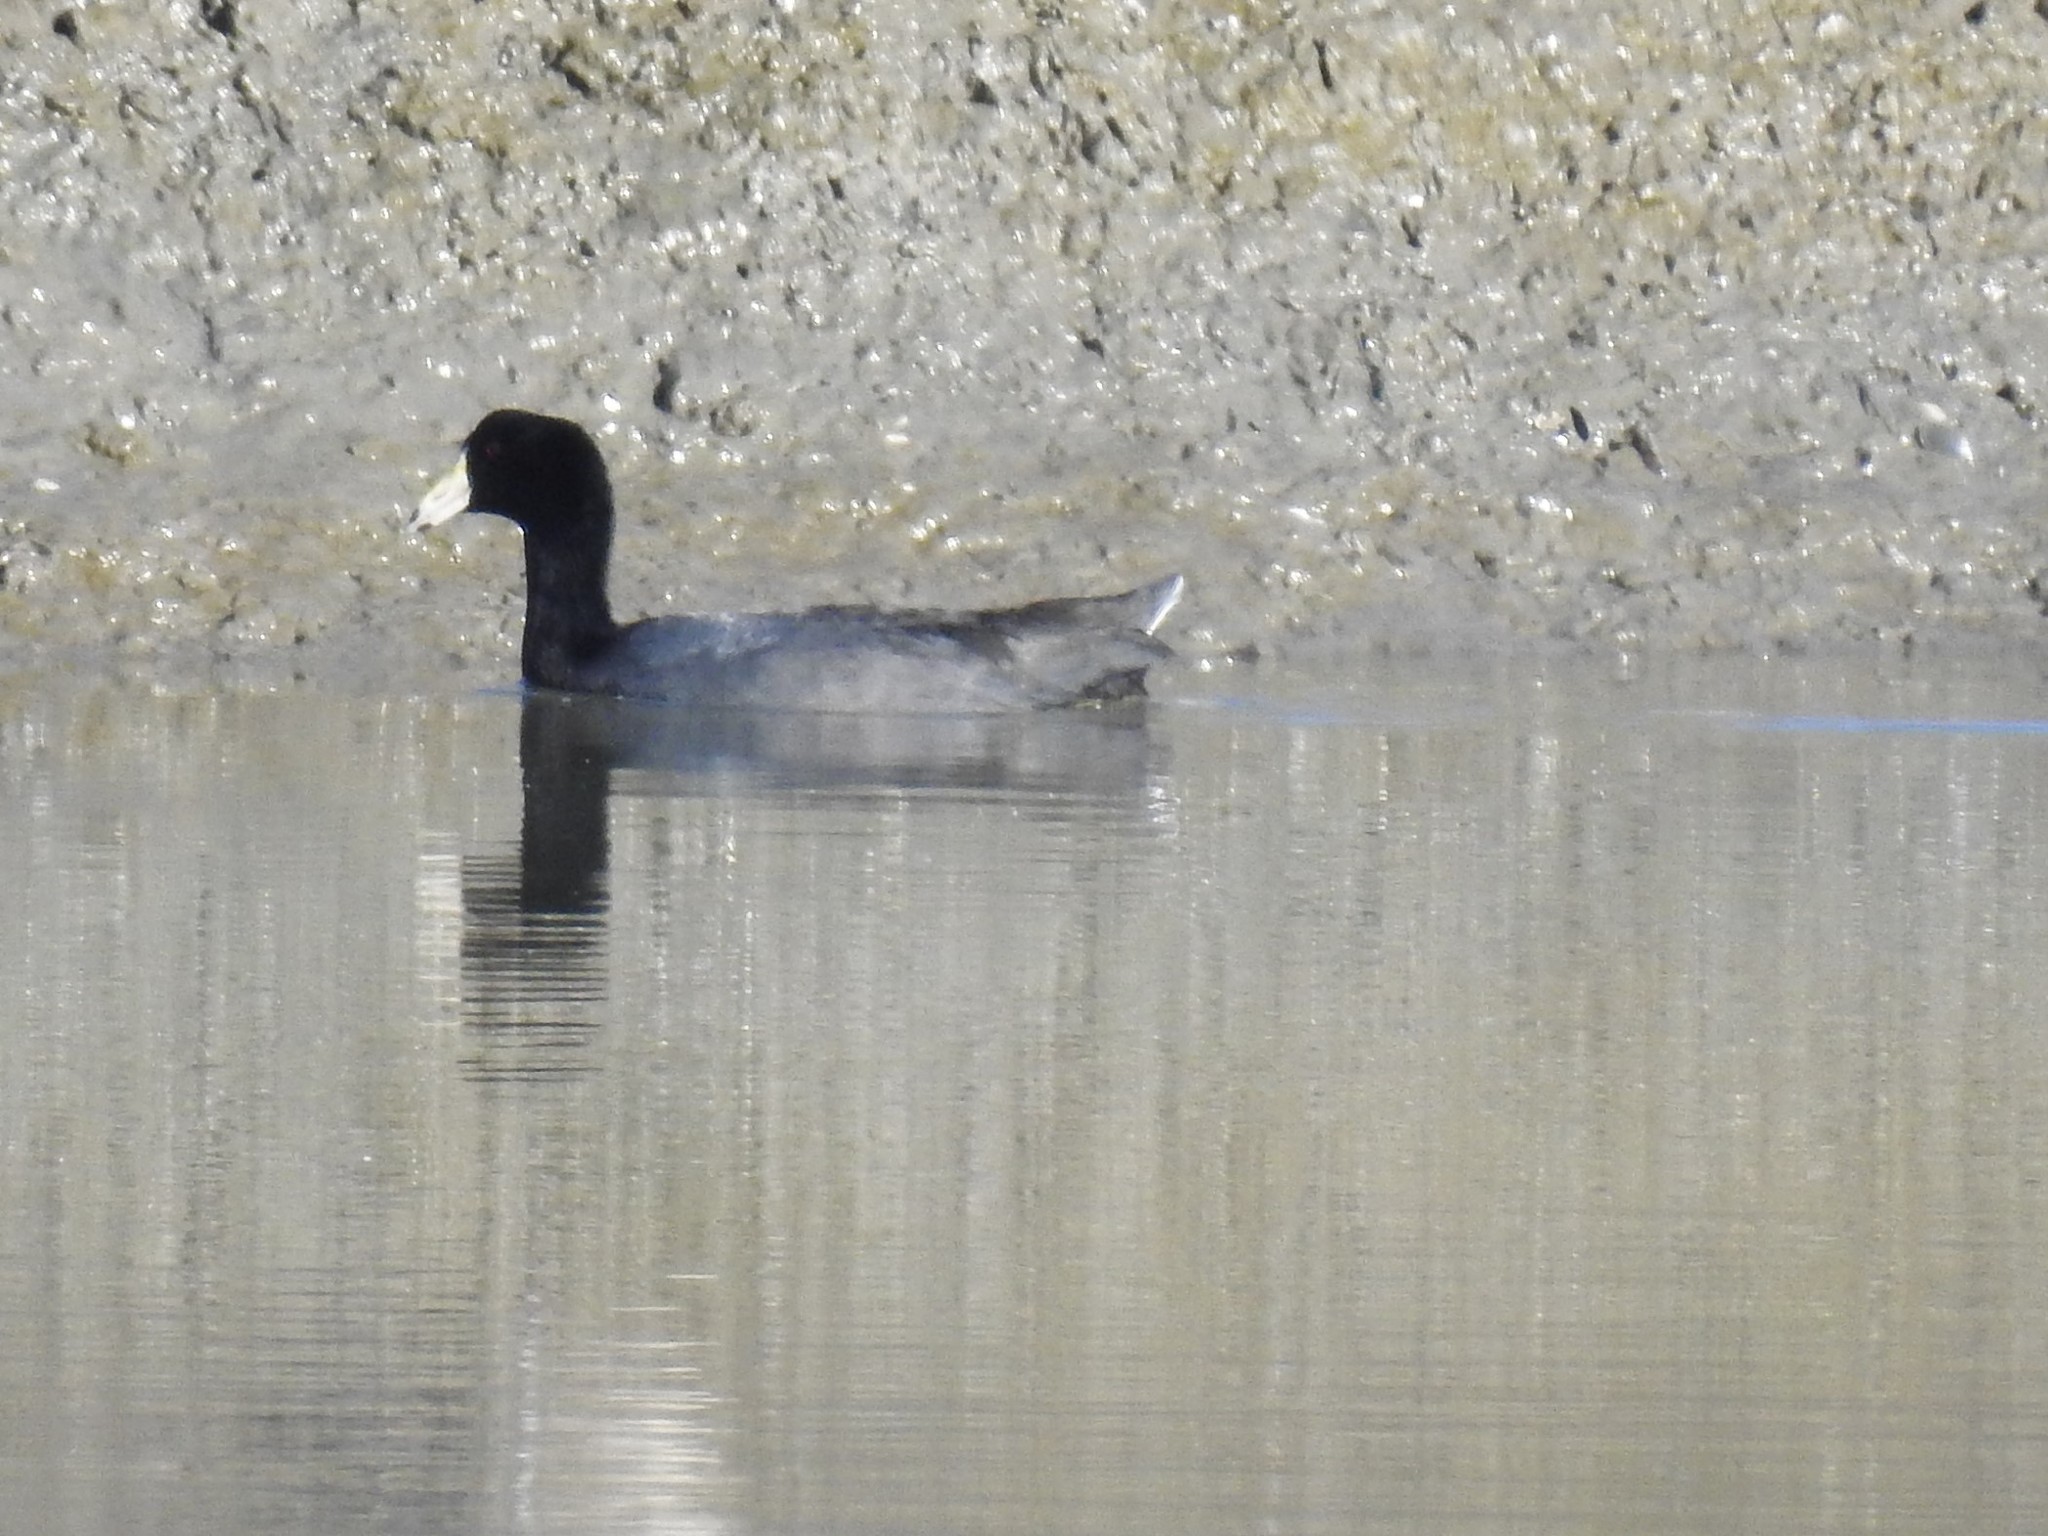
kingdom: Animalia
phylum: Chordata
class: Aves
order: Gruiformes
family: Rallidae
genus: Fulica
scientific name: Fulica americana
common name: American coot
